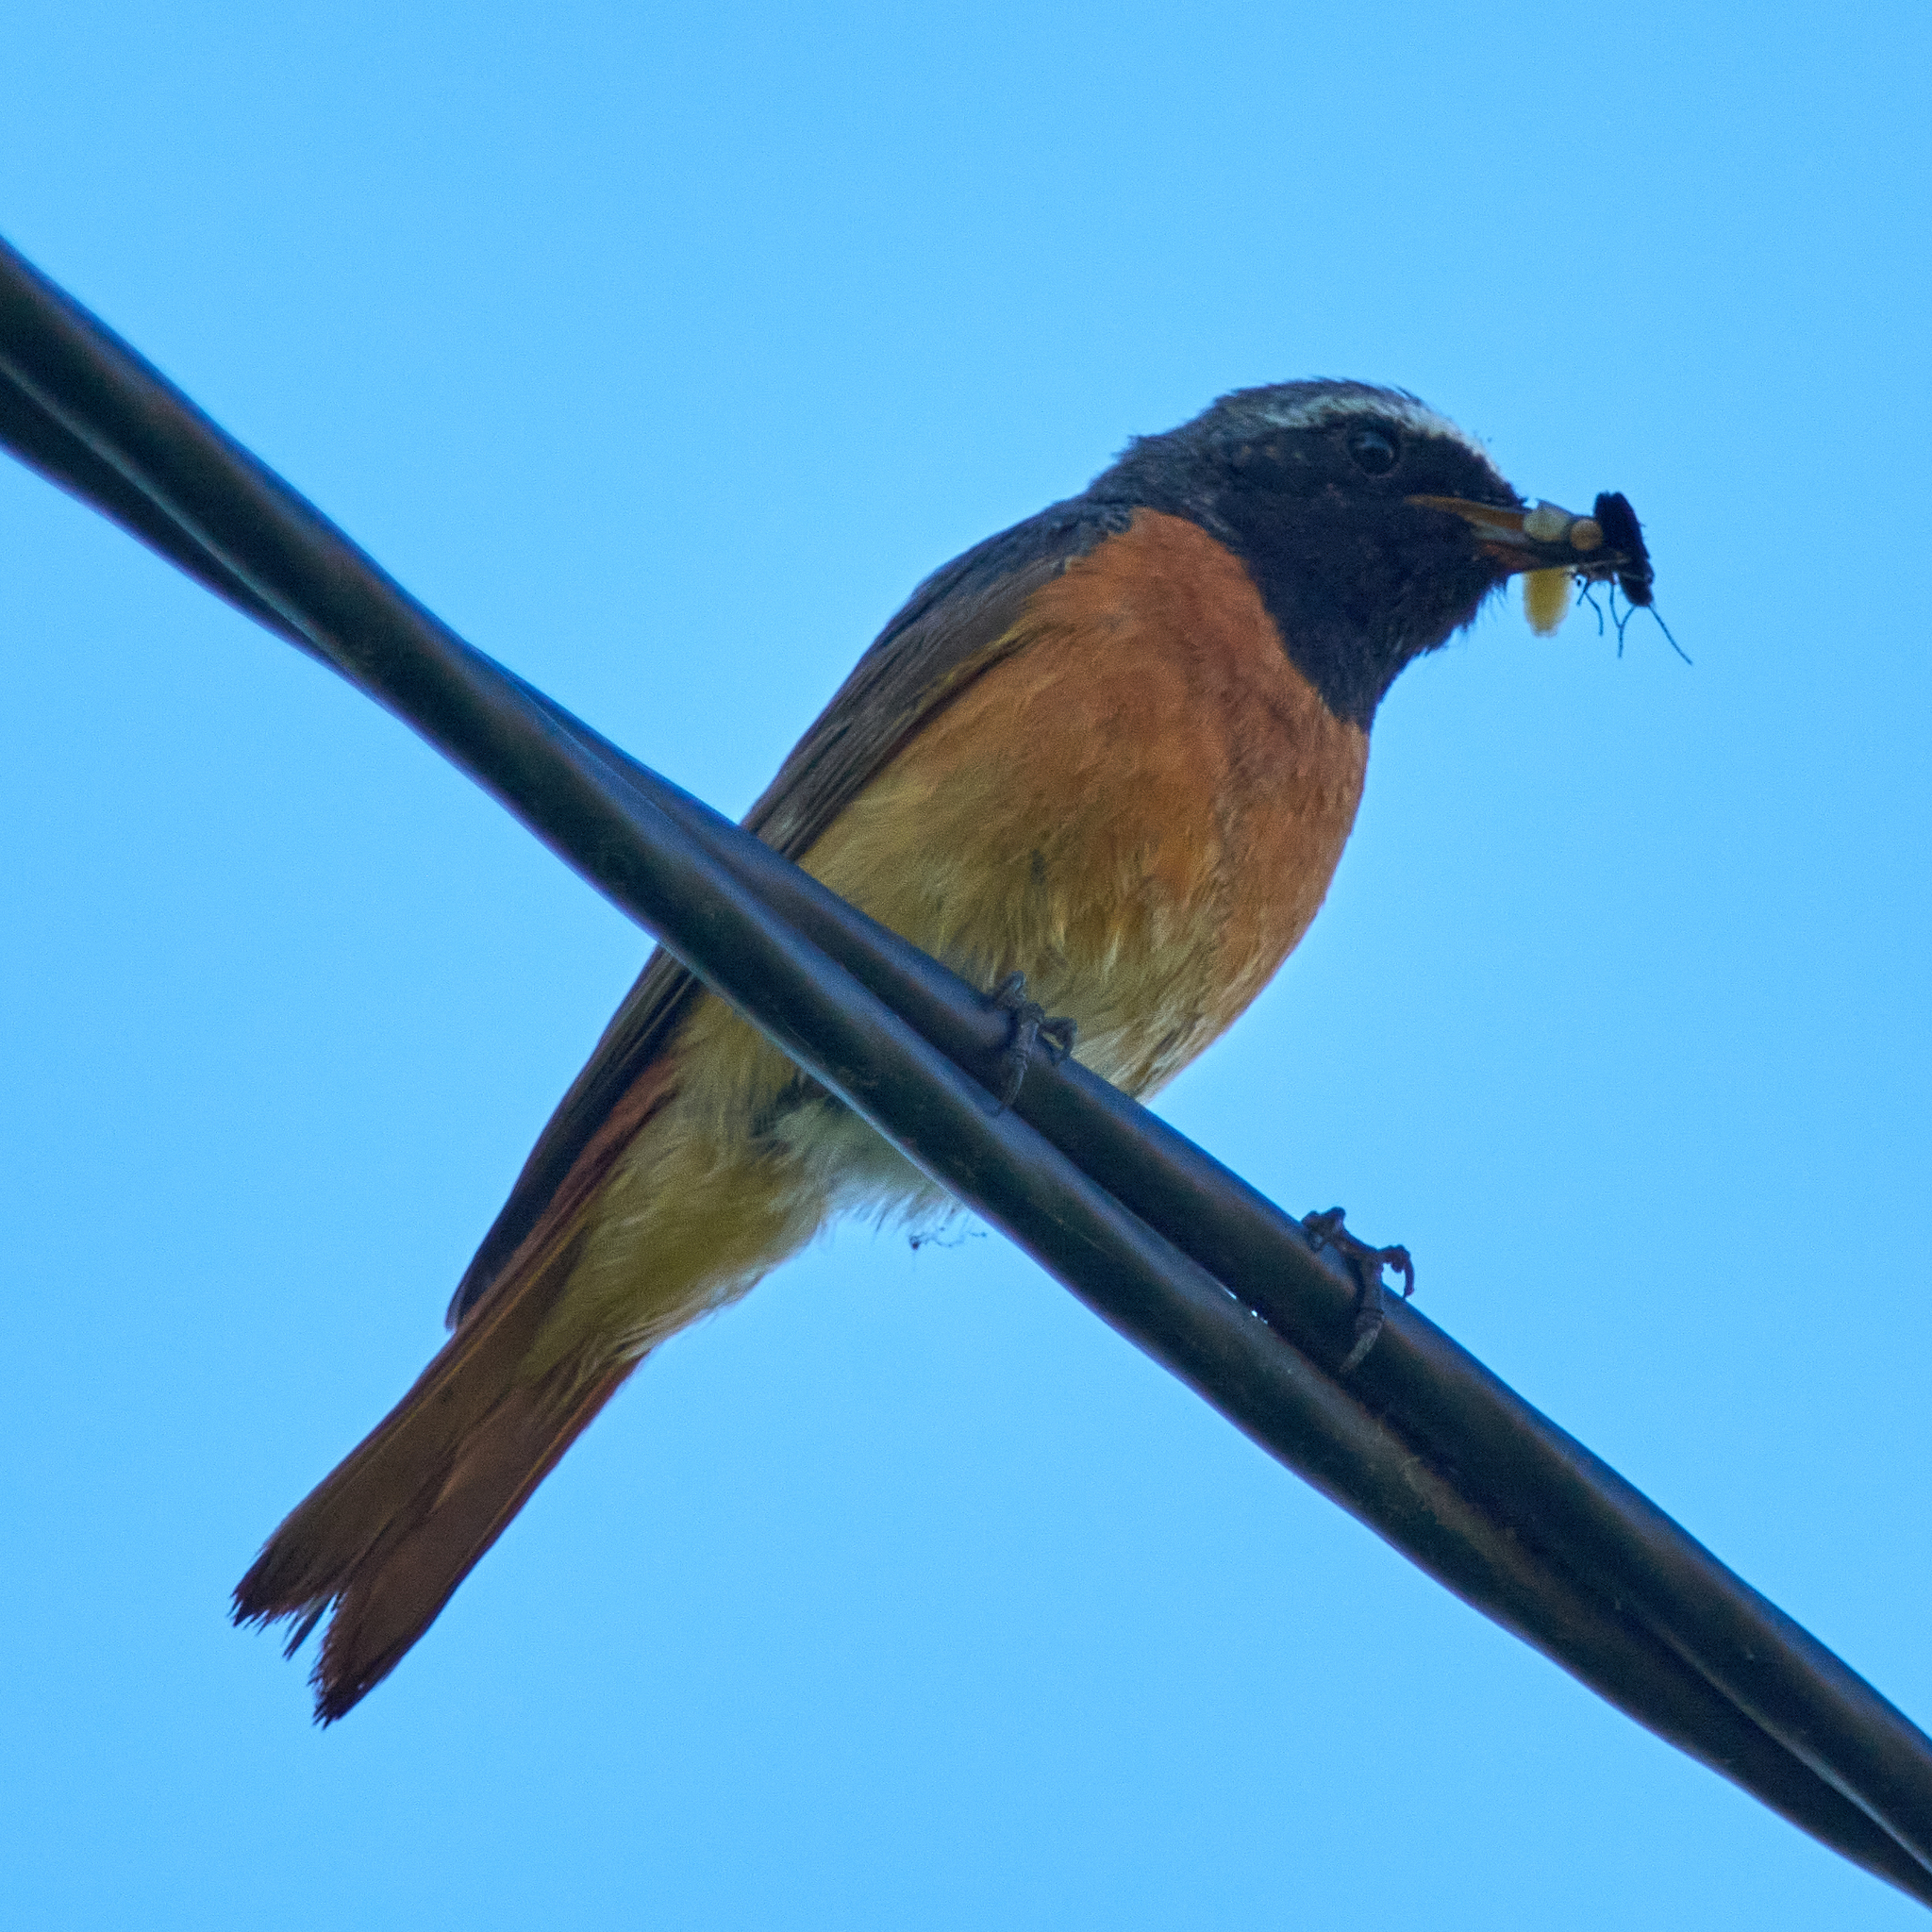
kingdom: Animalia
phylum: Chordata
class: Aves
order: Passeriformes
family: Muscicapidae
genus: Phoenicurus
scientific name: Phoenicurus phoenicurus
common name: Common redstart
